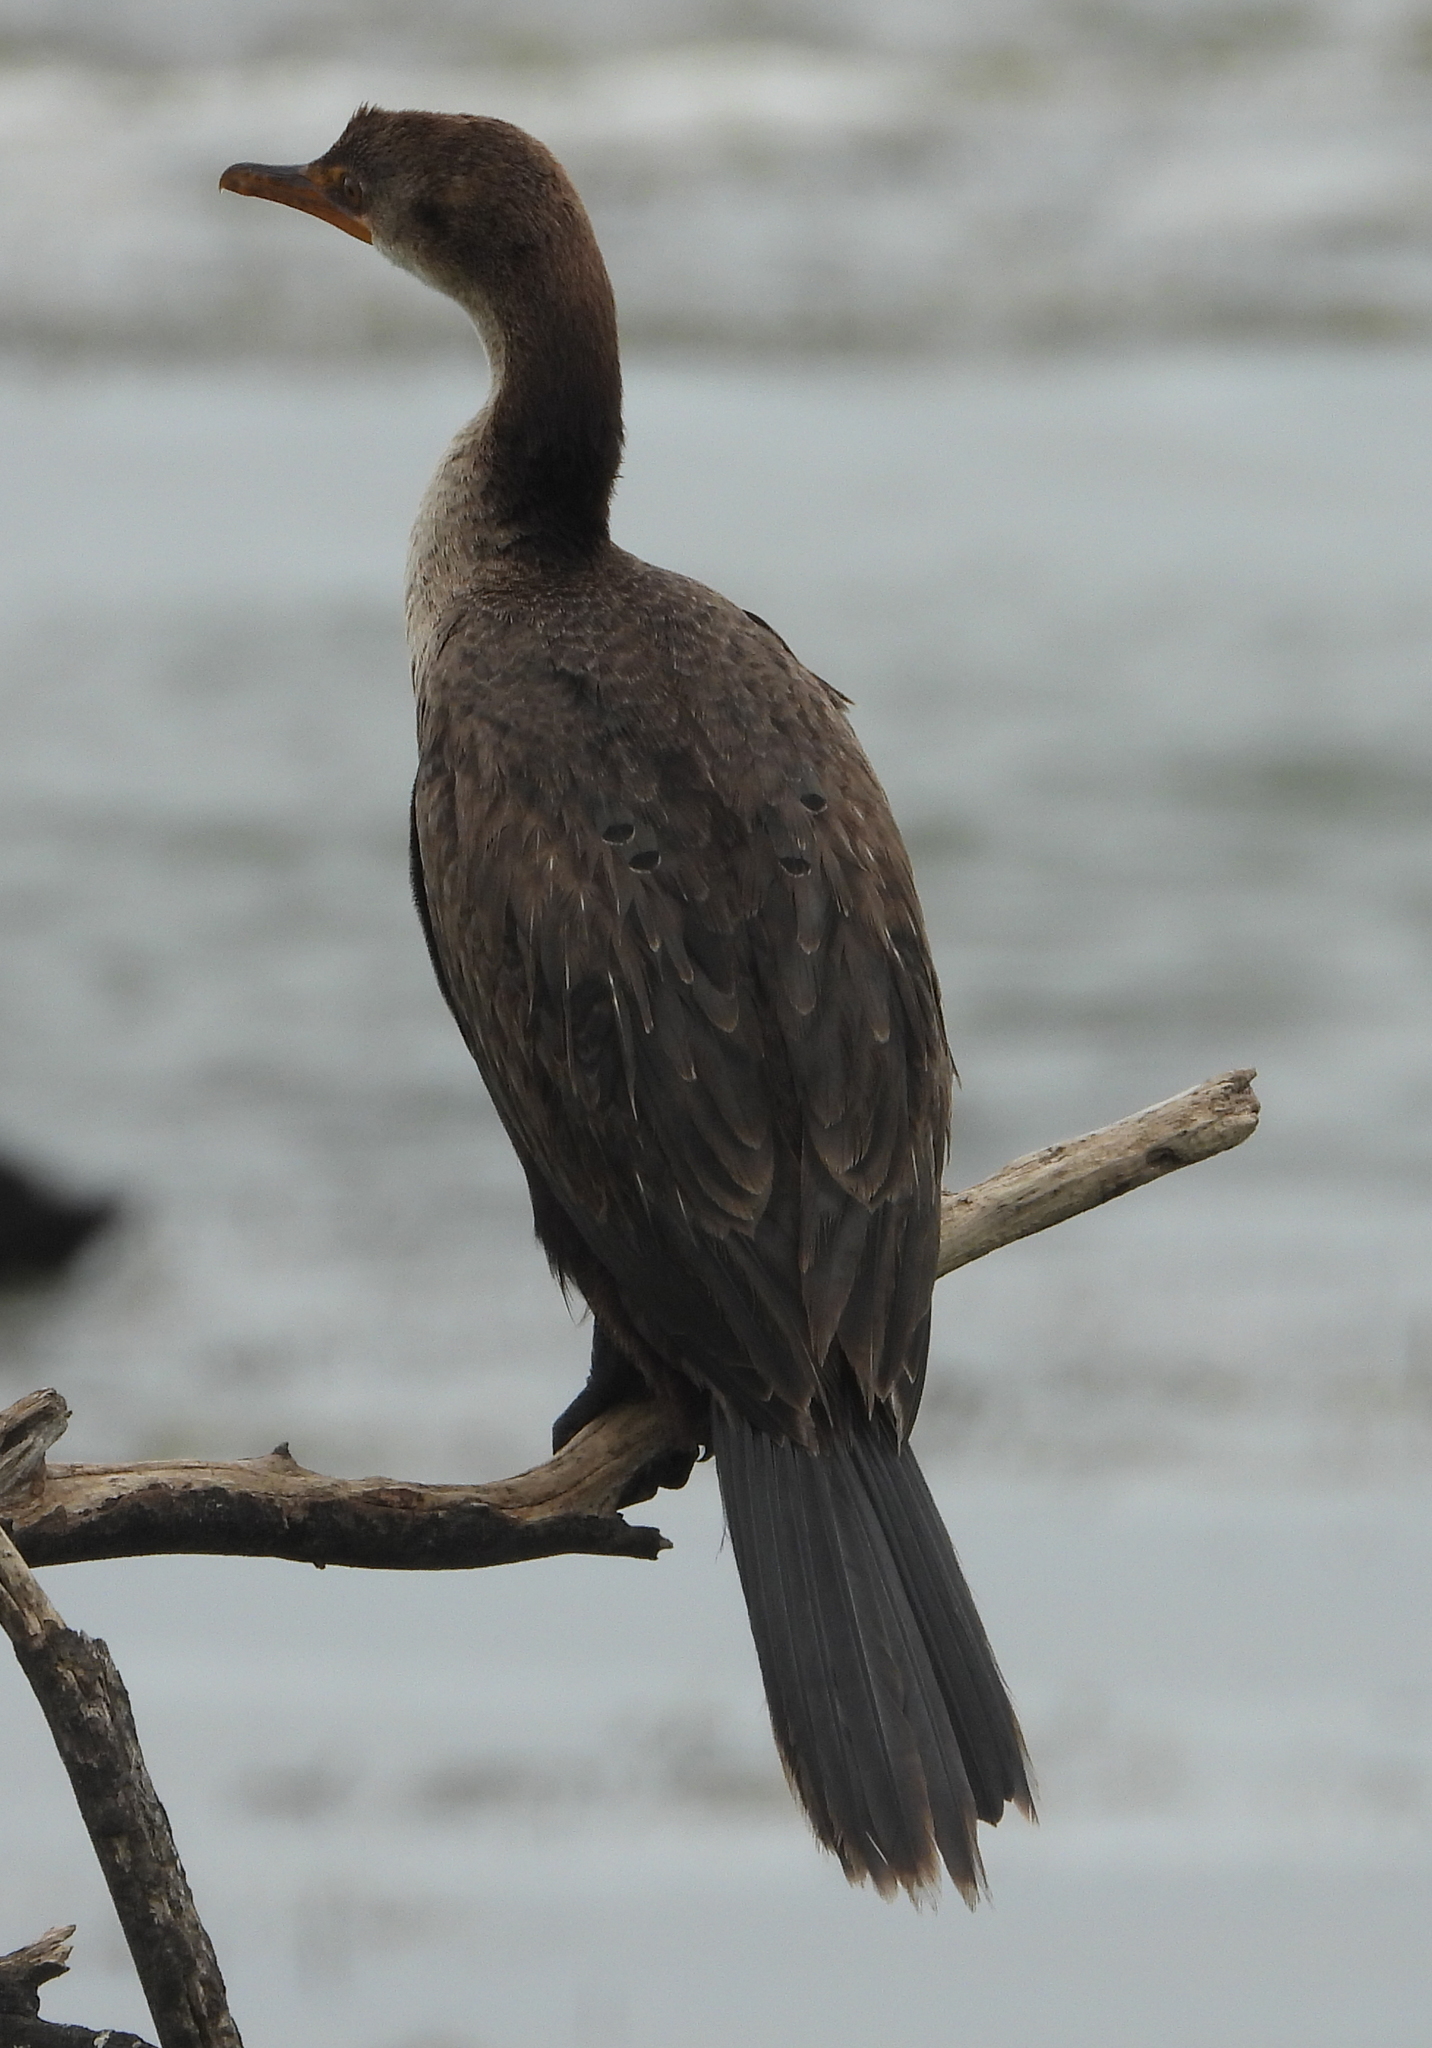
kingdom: Animalia
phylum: Chordata
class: Aves
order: Suliformes
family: Phalacrocoracidae
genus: Microcarbo
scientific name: Microcarbo africanus
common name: Long-tailed cormorant
